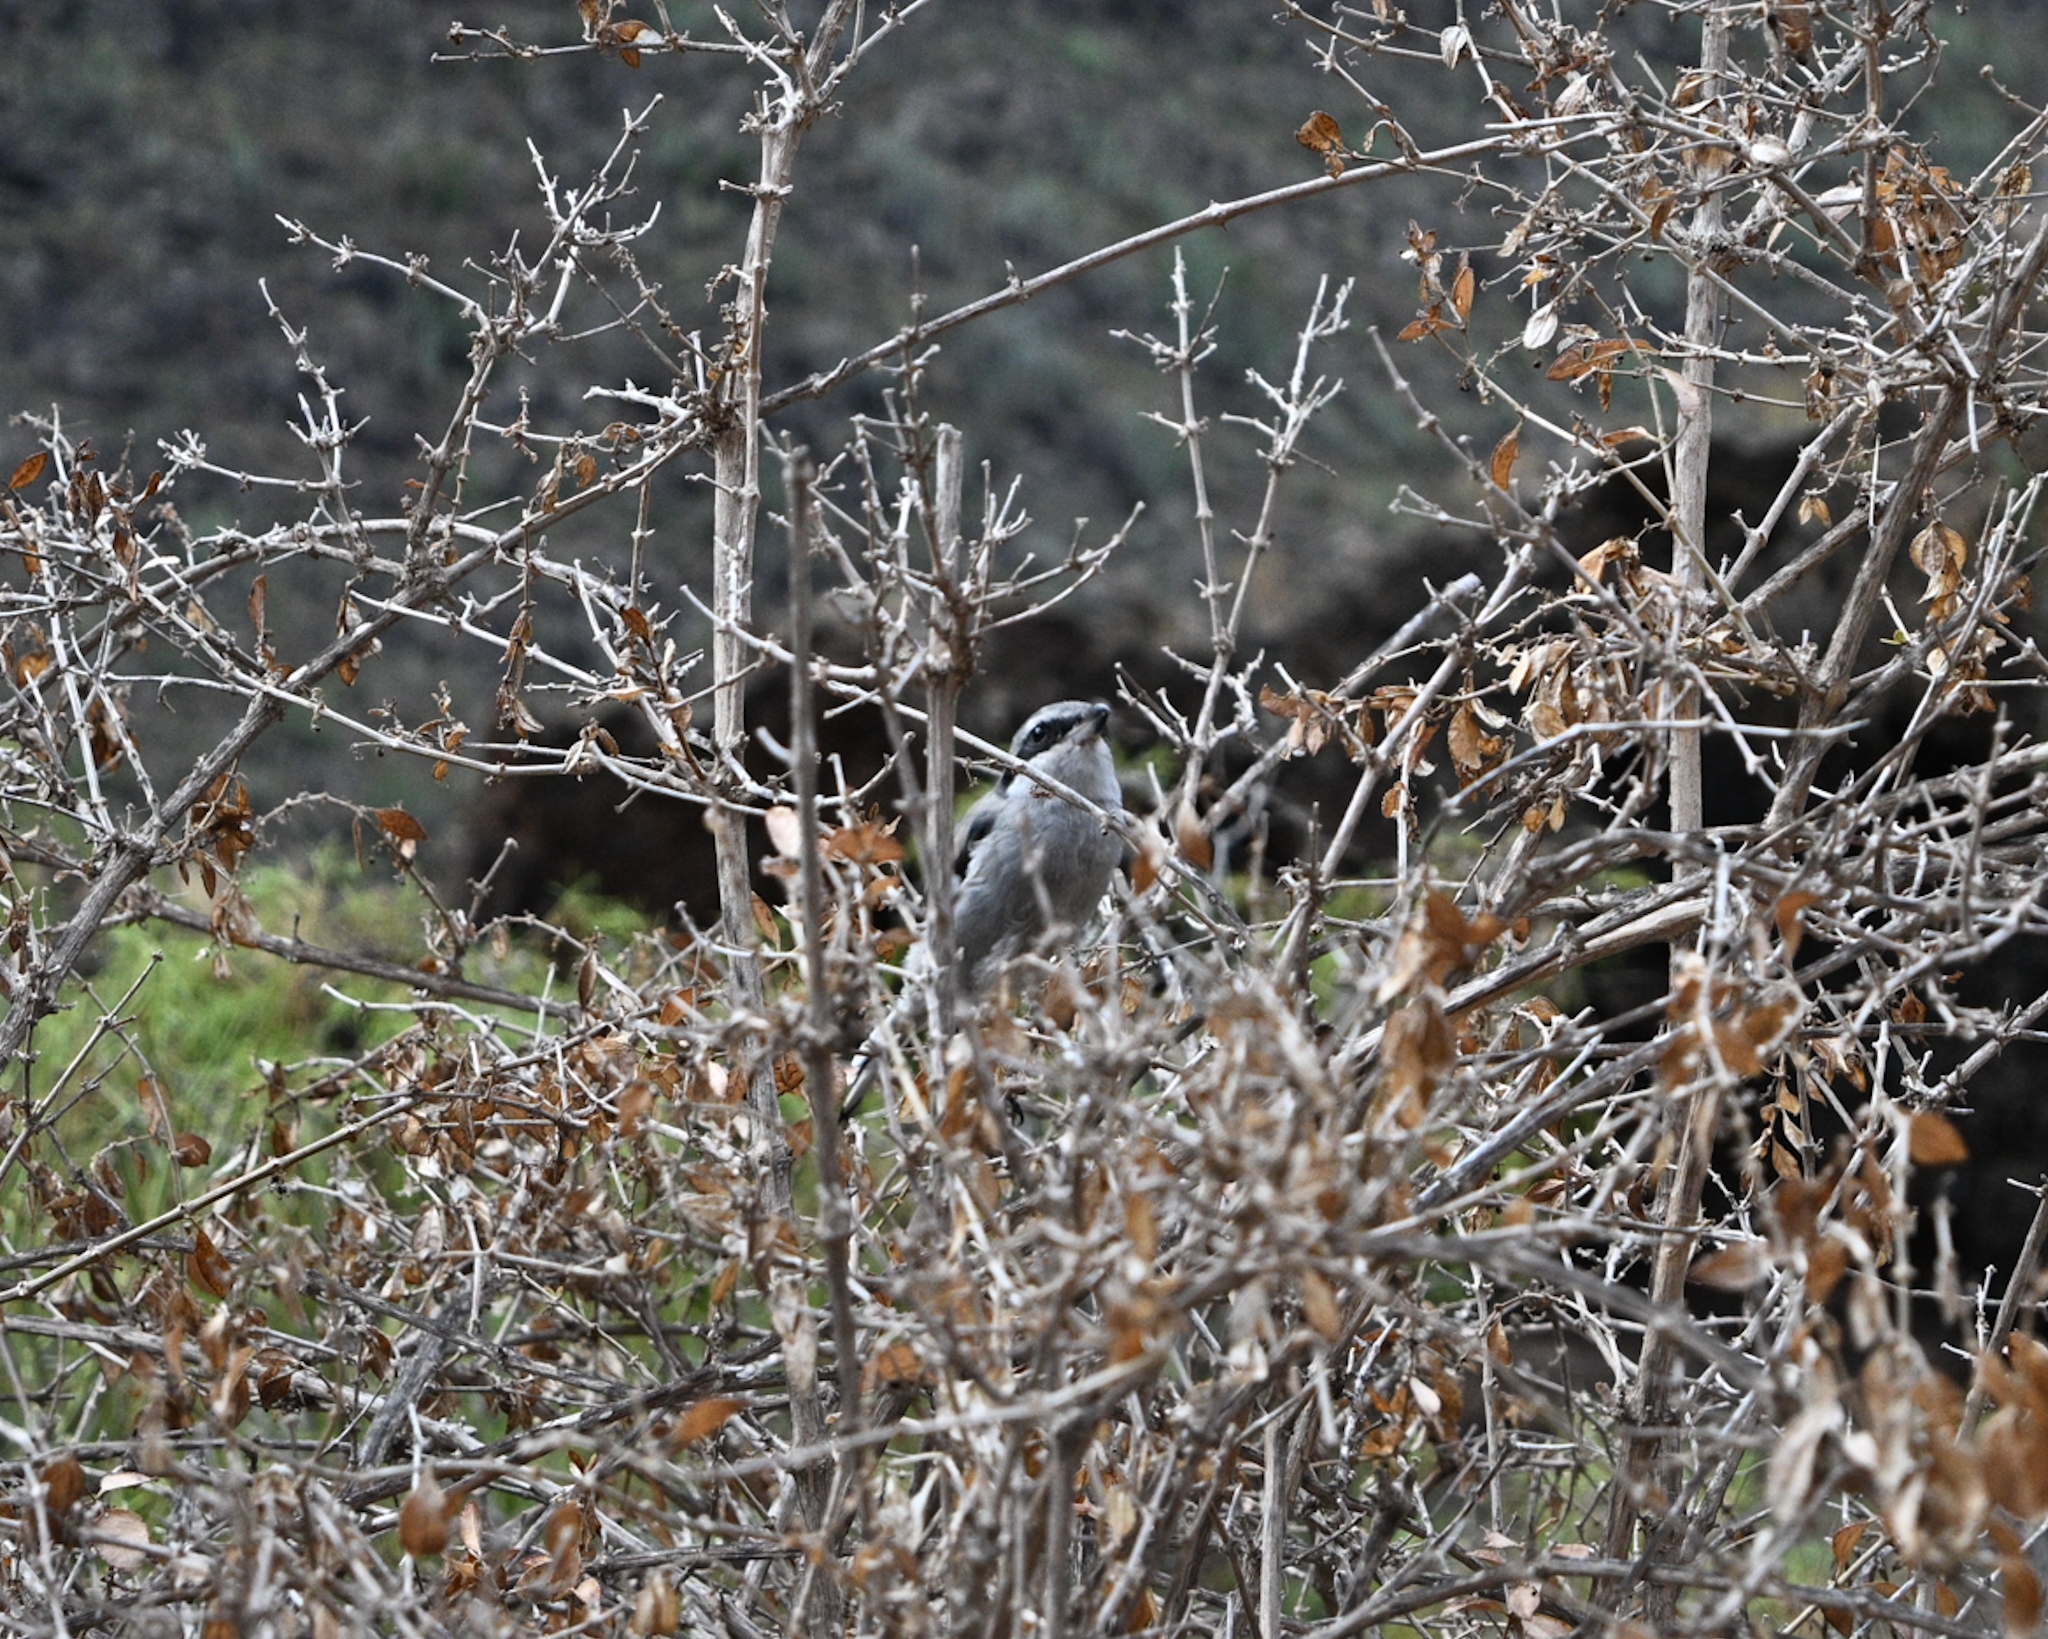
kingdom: Animalia
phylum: Chordata
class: Aves
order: Passeriformes
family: Laniidae
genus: Lanius
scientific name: Lanius excubitor
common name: Great grey shrike
